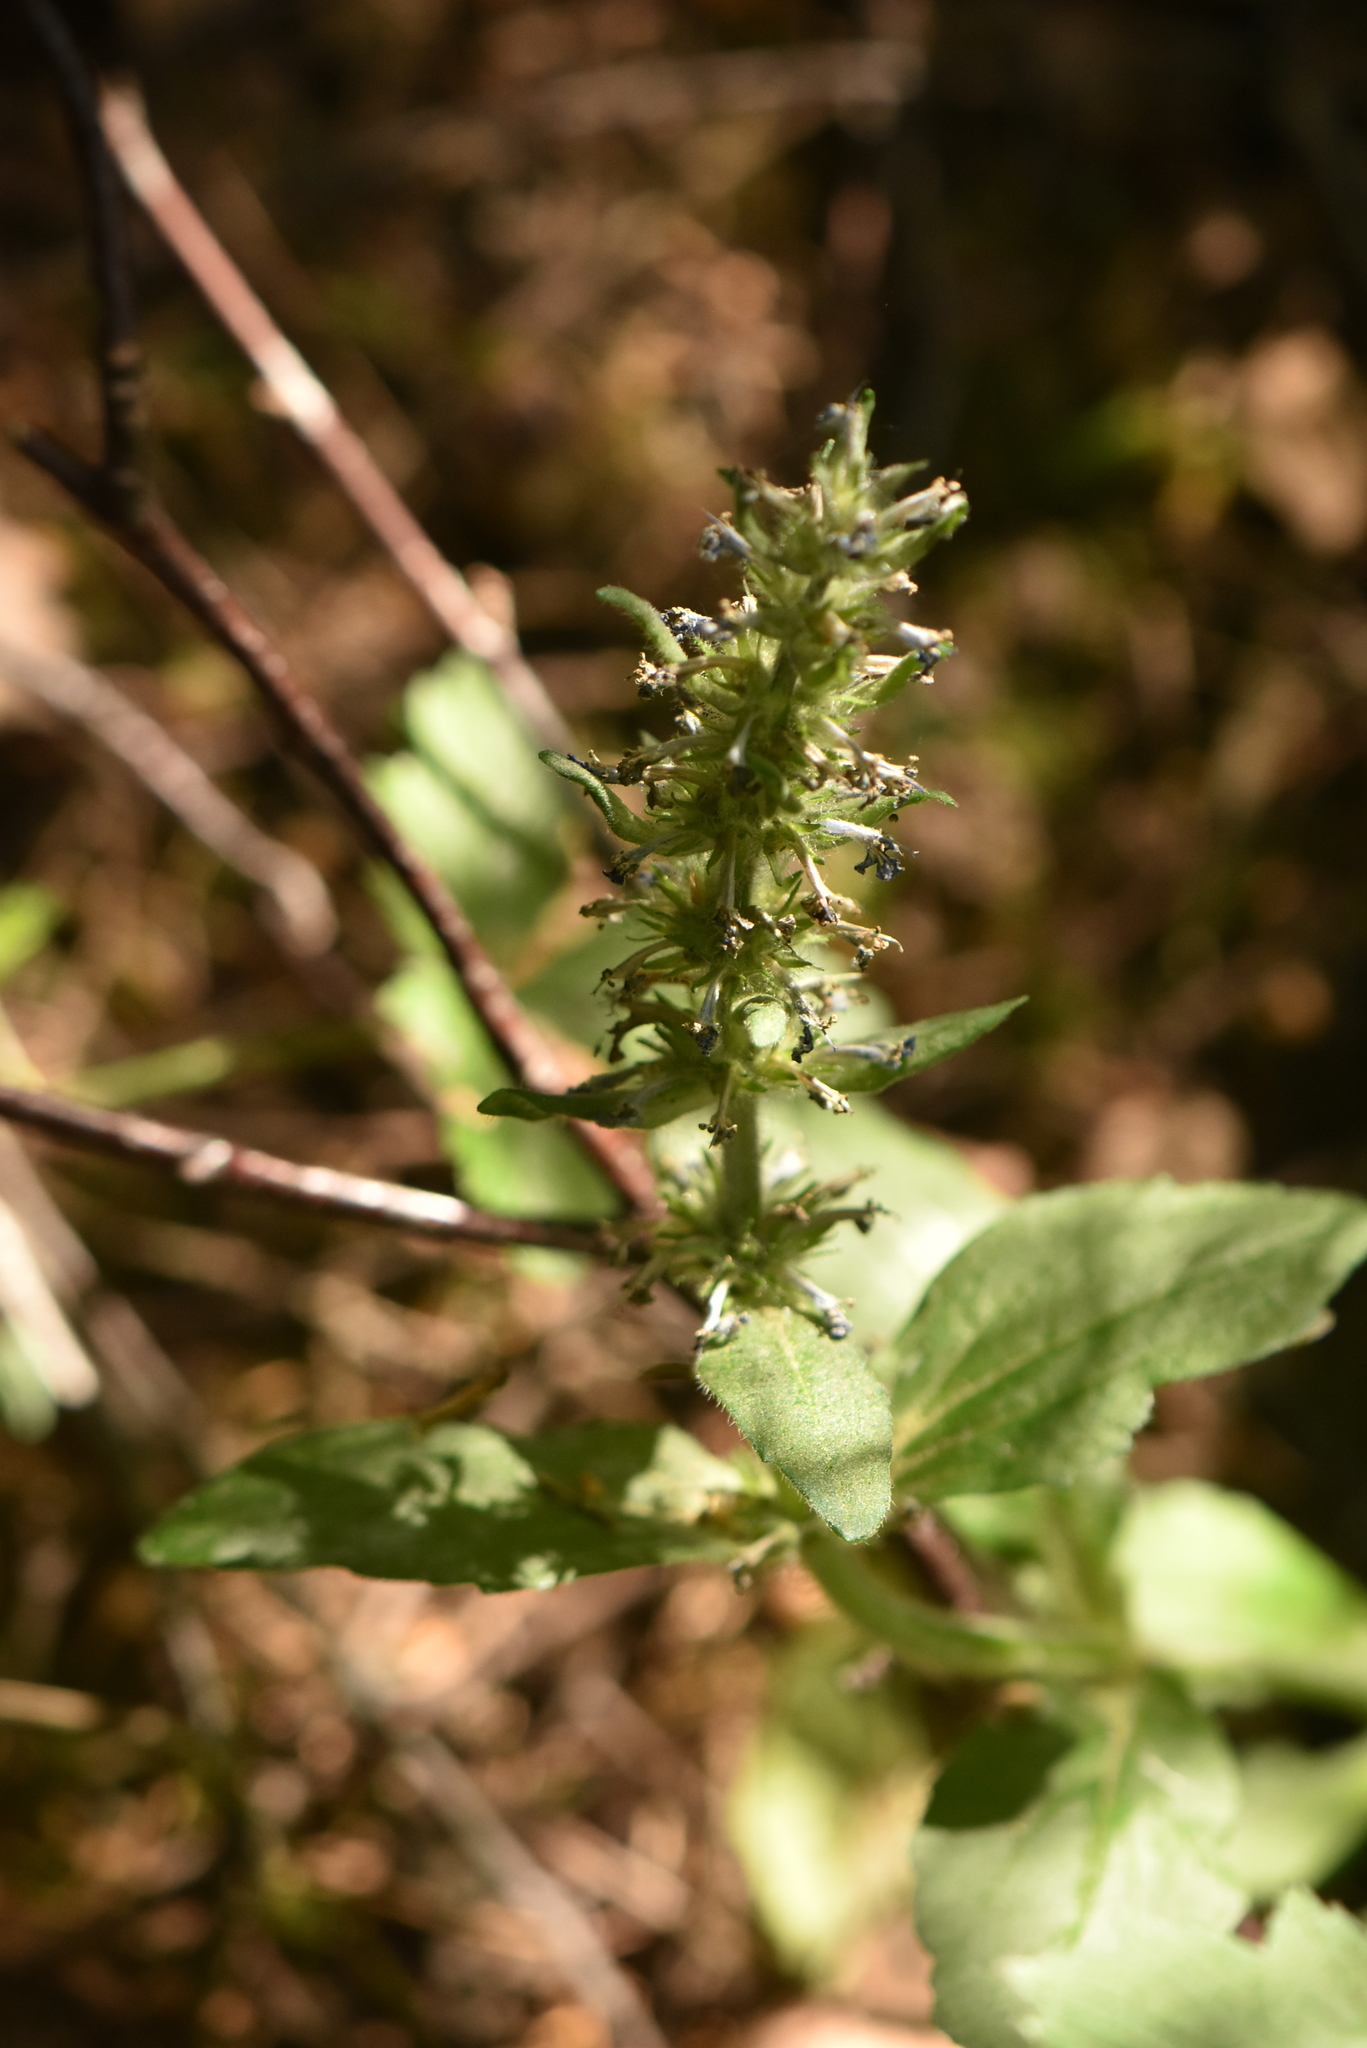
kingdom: Plantae
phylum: Tracheophyta
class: Magnoliopsida
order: Lamiales
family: Lamiaceae
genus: Ajuga
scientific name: Ajuga reptans
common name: Bugle
